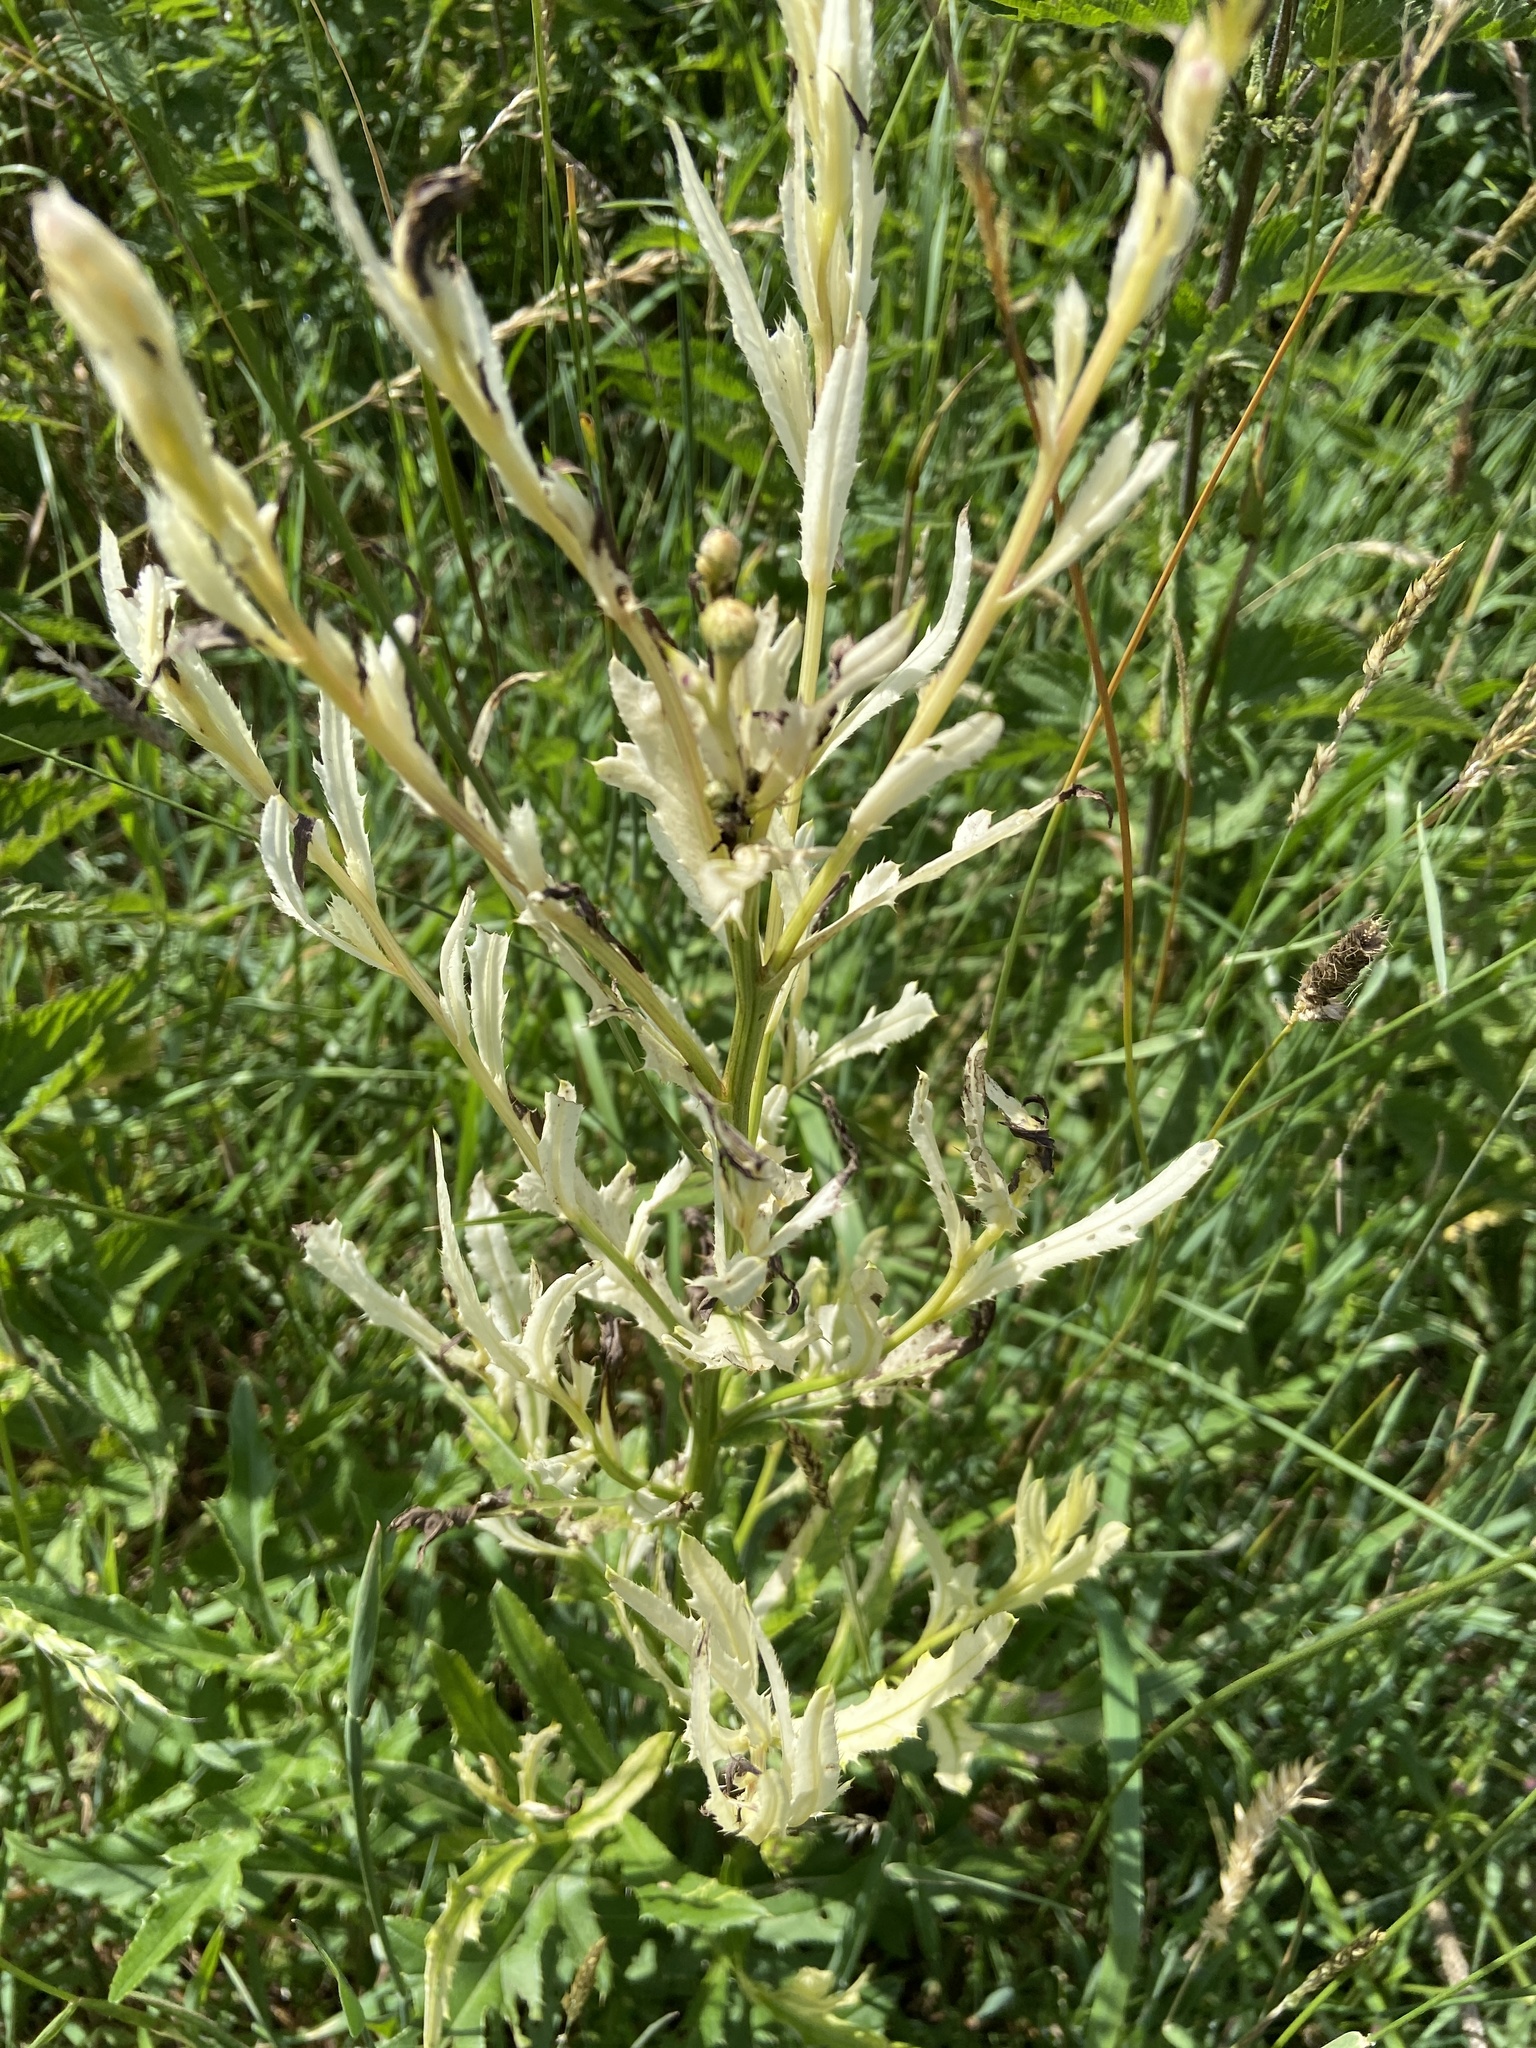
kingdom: Plantae
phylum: Tracheophyta
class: Magnoliopsida
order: Asterales
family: Asteraceae
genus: Cirsium
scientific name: Cirsium arvense
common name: Creeping thistle
